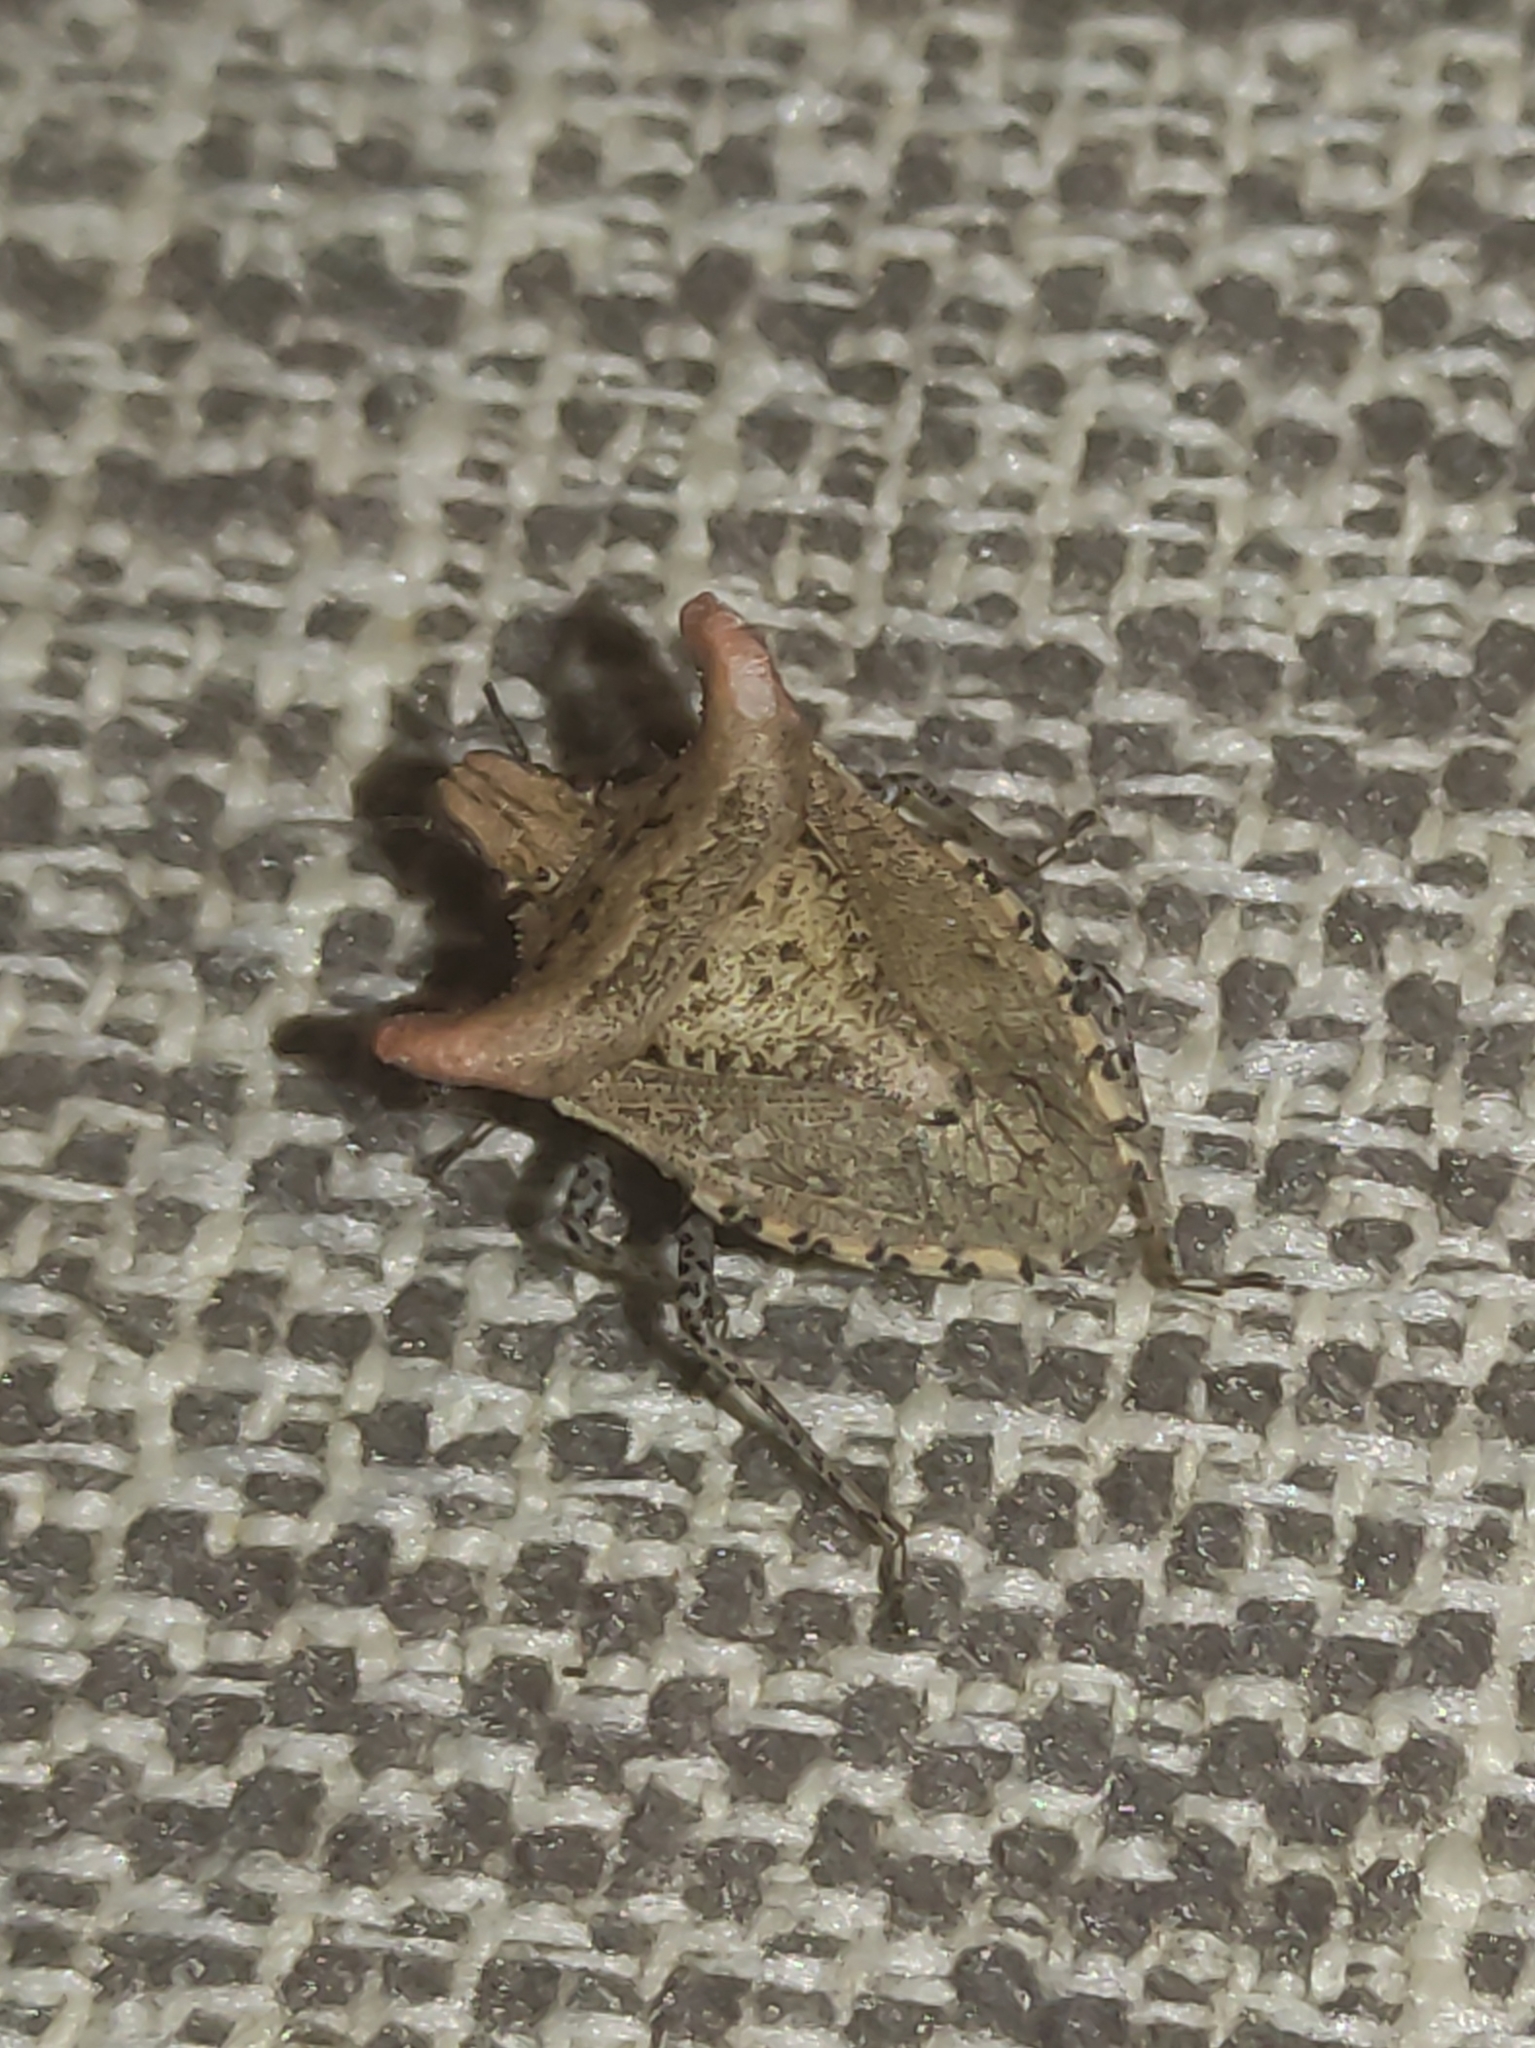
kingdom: Animalia
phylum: Arthropoda
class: Insecta
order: Hemiptera
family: Pentatomidae
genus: Euschistus
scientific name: Euschistus cornutus
